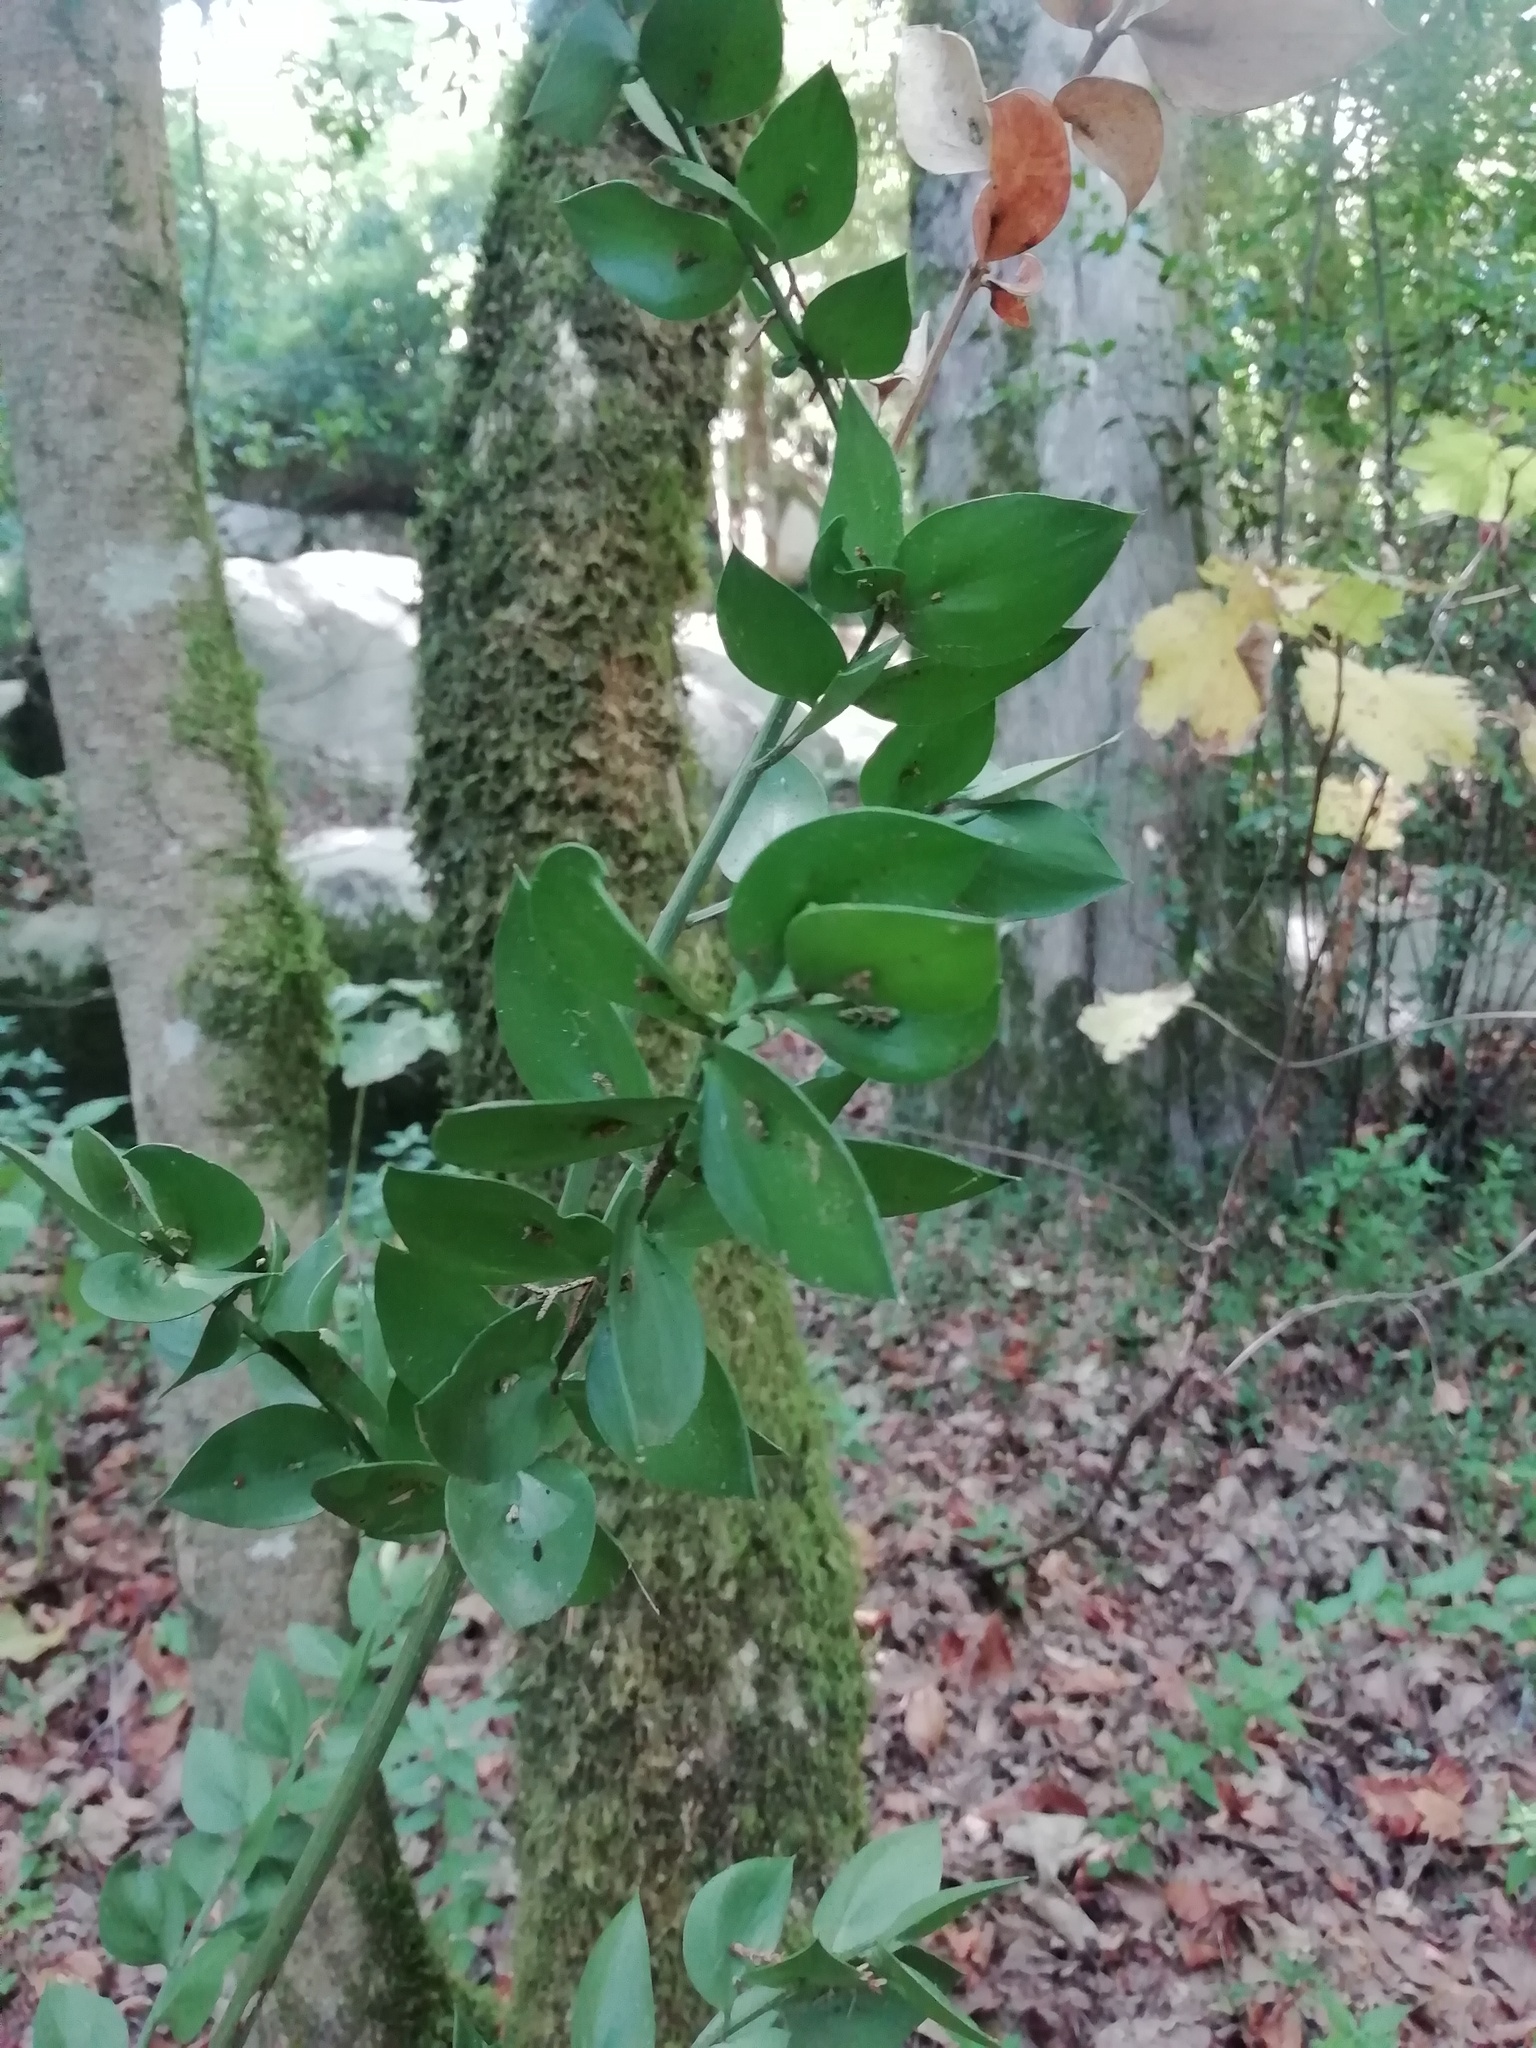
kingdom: Plantae
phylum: Tracheophyta
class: Liliopsida
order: Asparagales
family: Asparagaceae
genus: Ruscus
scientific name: Ruscus aculeatus
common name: Butcher's-broom
